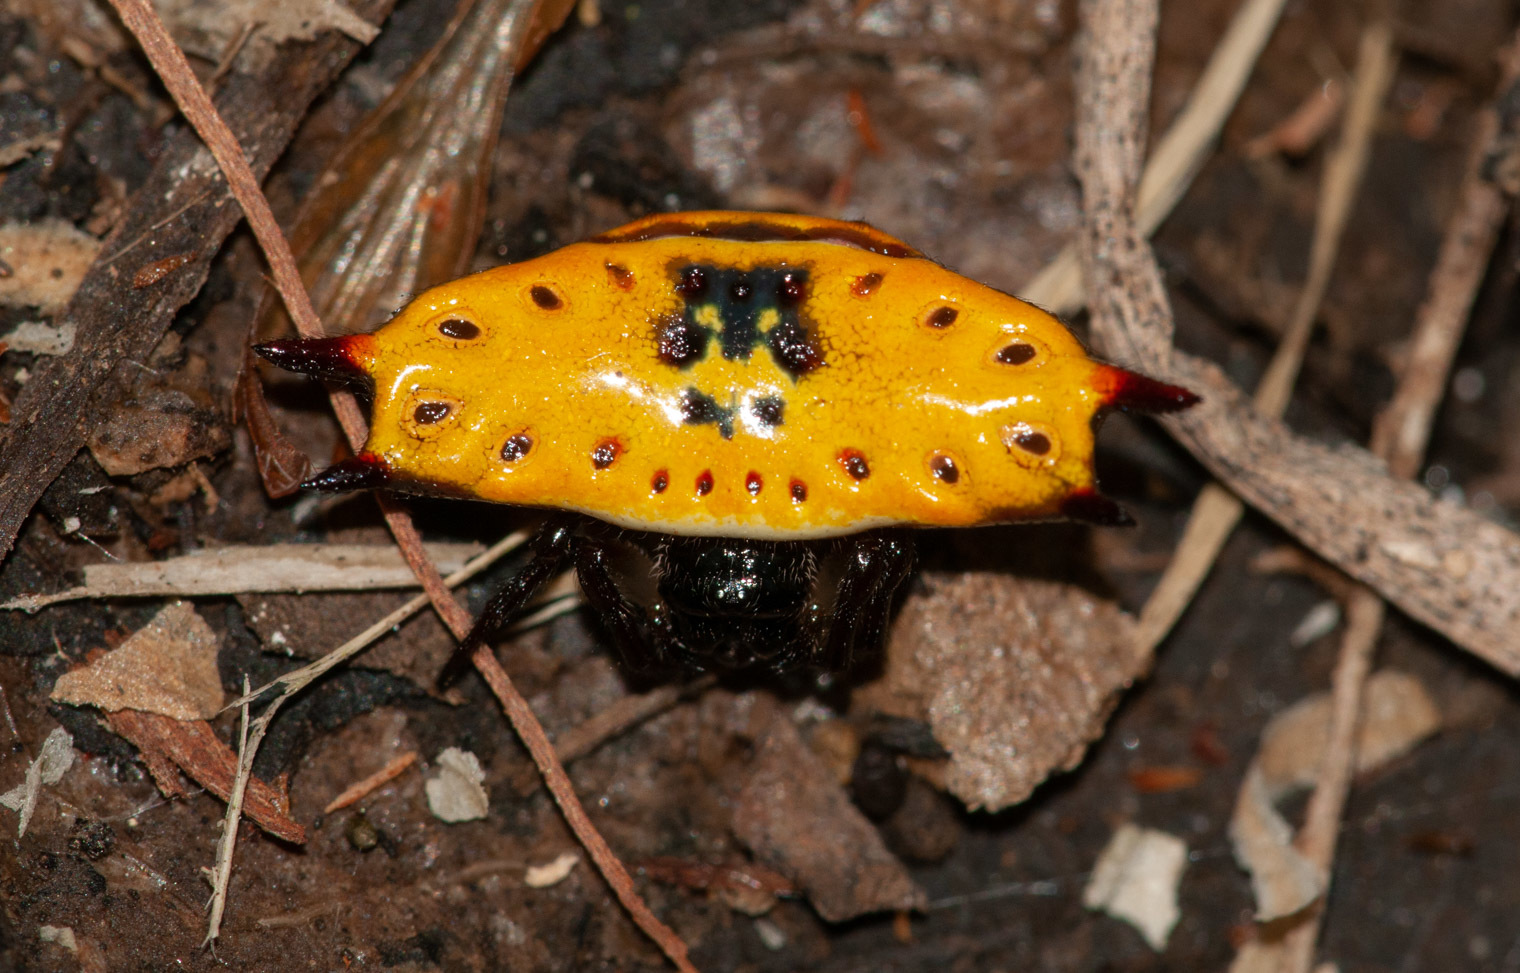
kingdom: Animalia
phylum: Arthropoda
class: Arachnida
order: Araneae
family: Araneidae
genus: Gasteracantha
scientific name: Gasteracantha quadrispinosa
